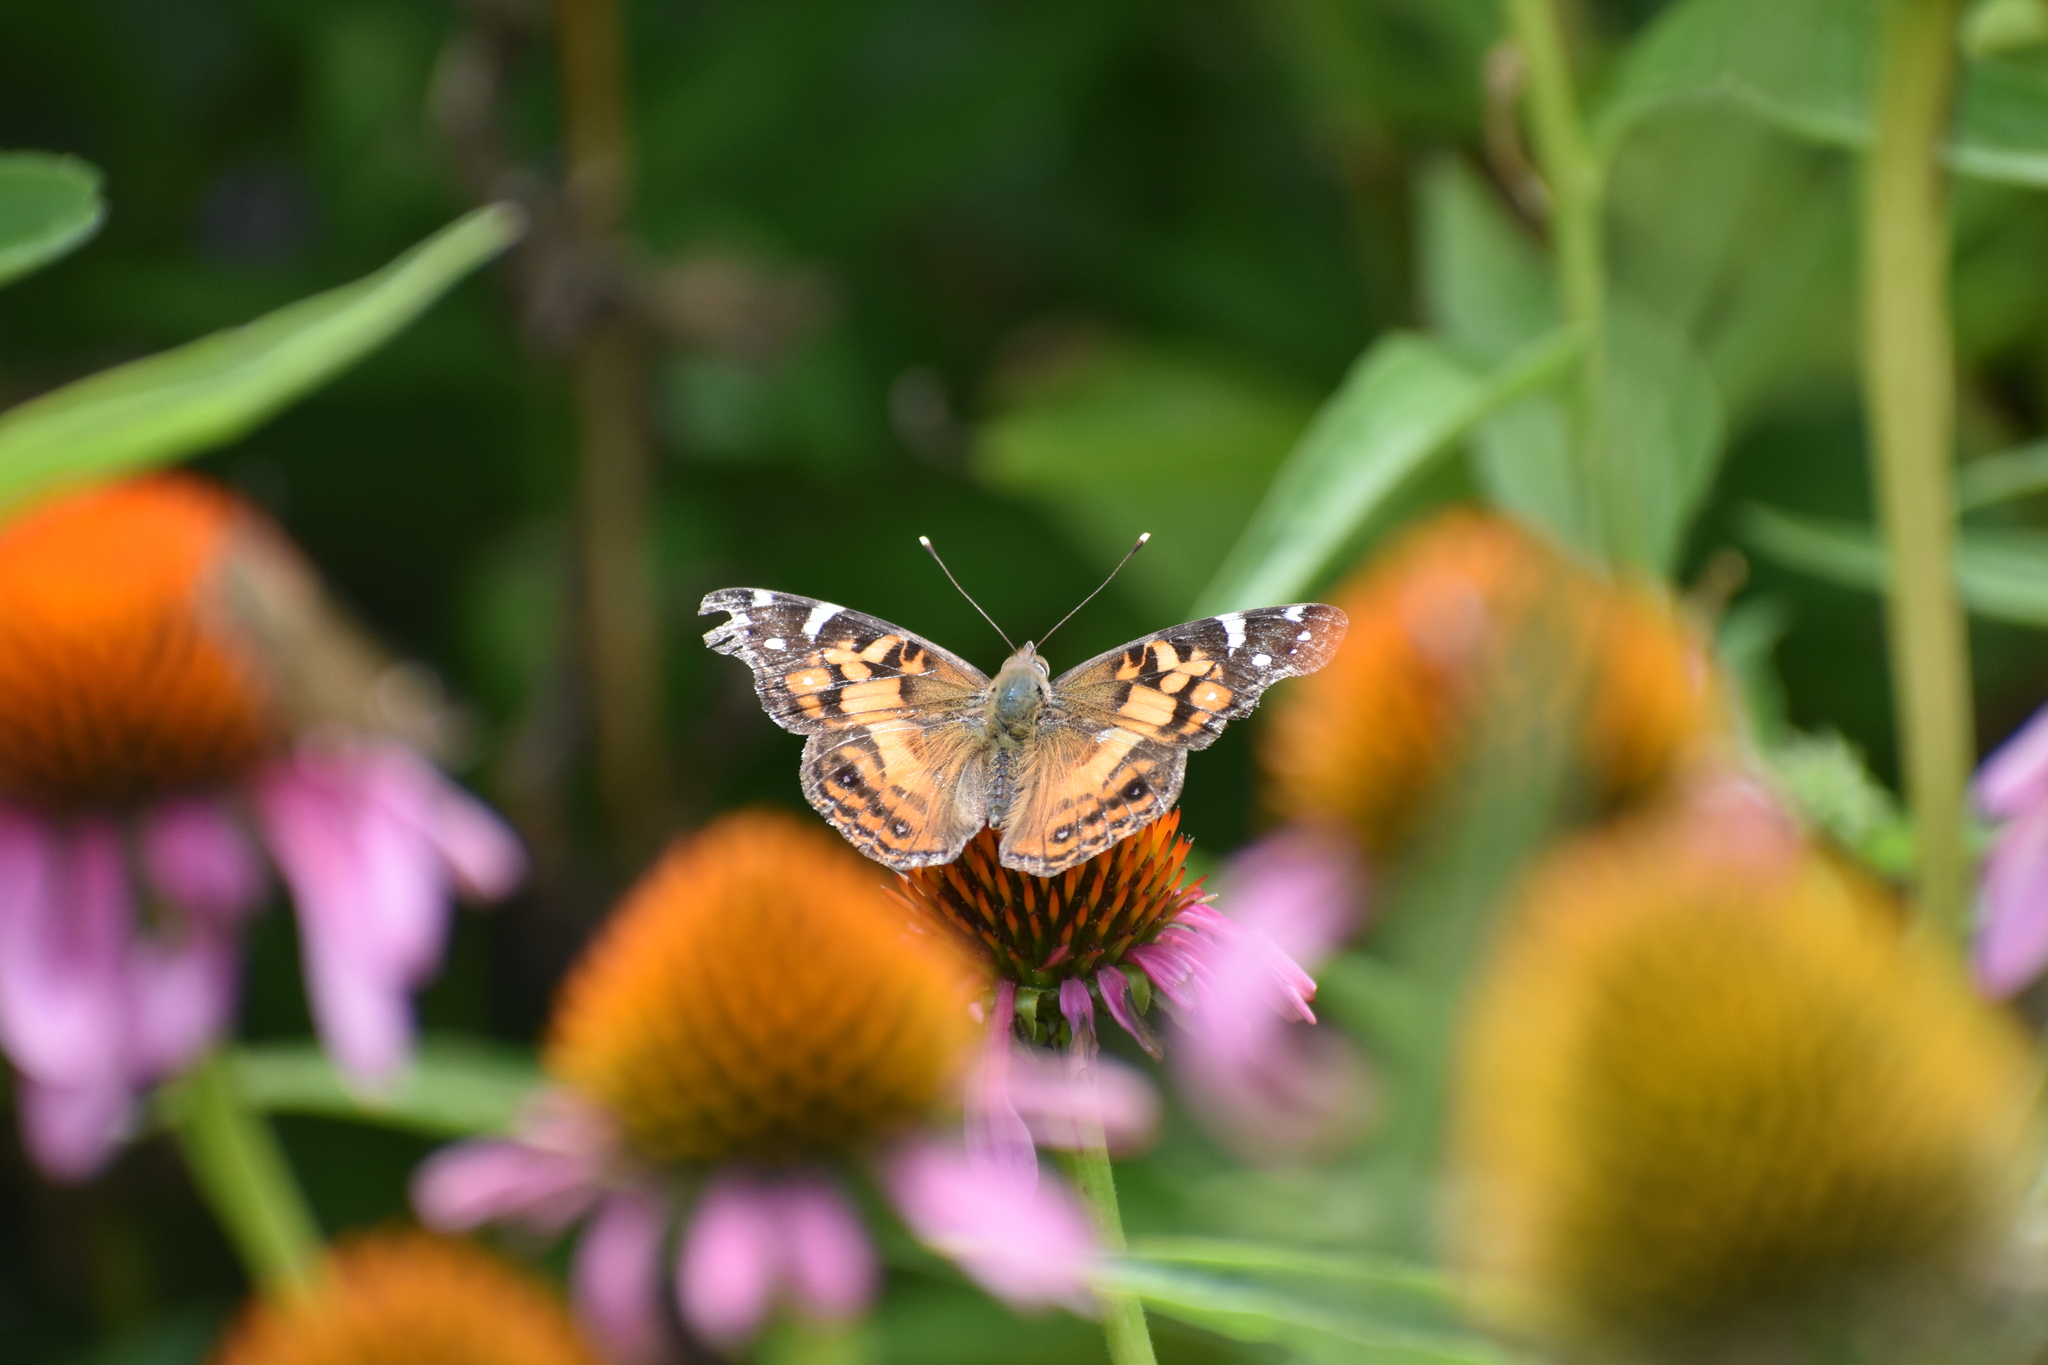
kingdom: Animalia
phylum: Arthropoda
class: Insecta
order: Lepidoptera
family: Nymphalidae
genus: Vanessa
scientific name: Vanessa virginiensis
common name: American lady
